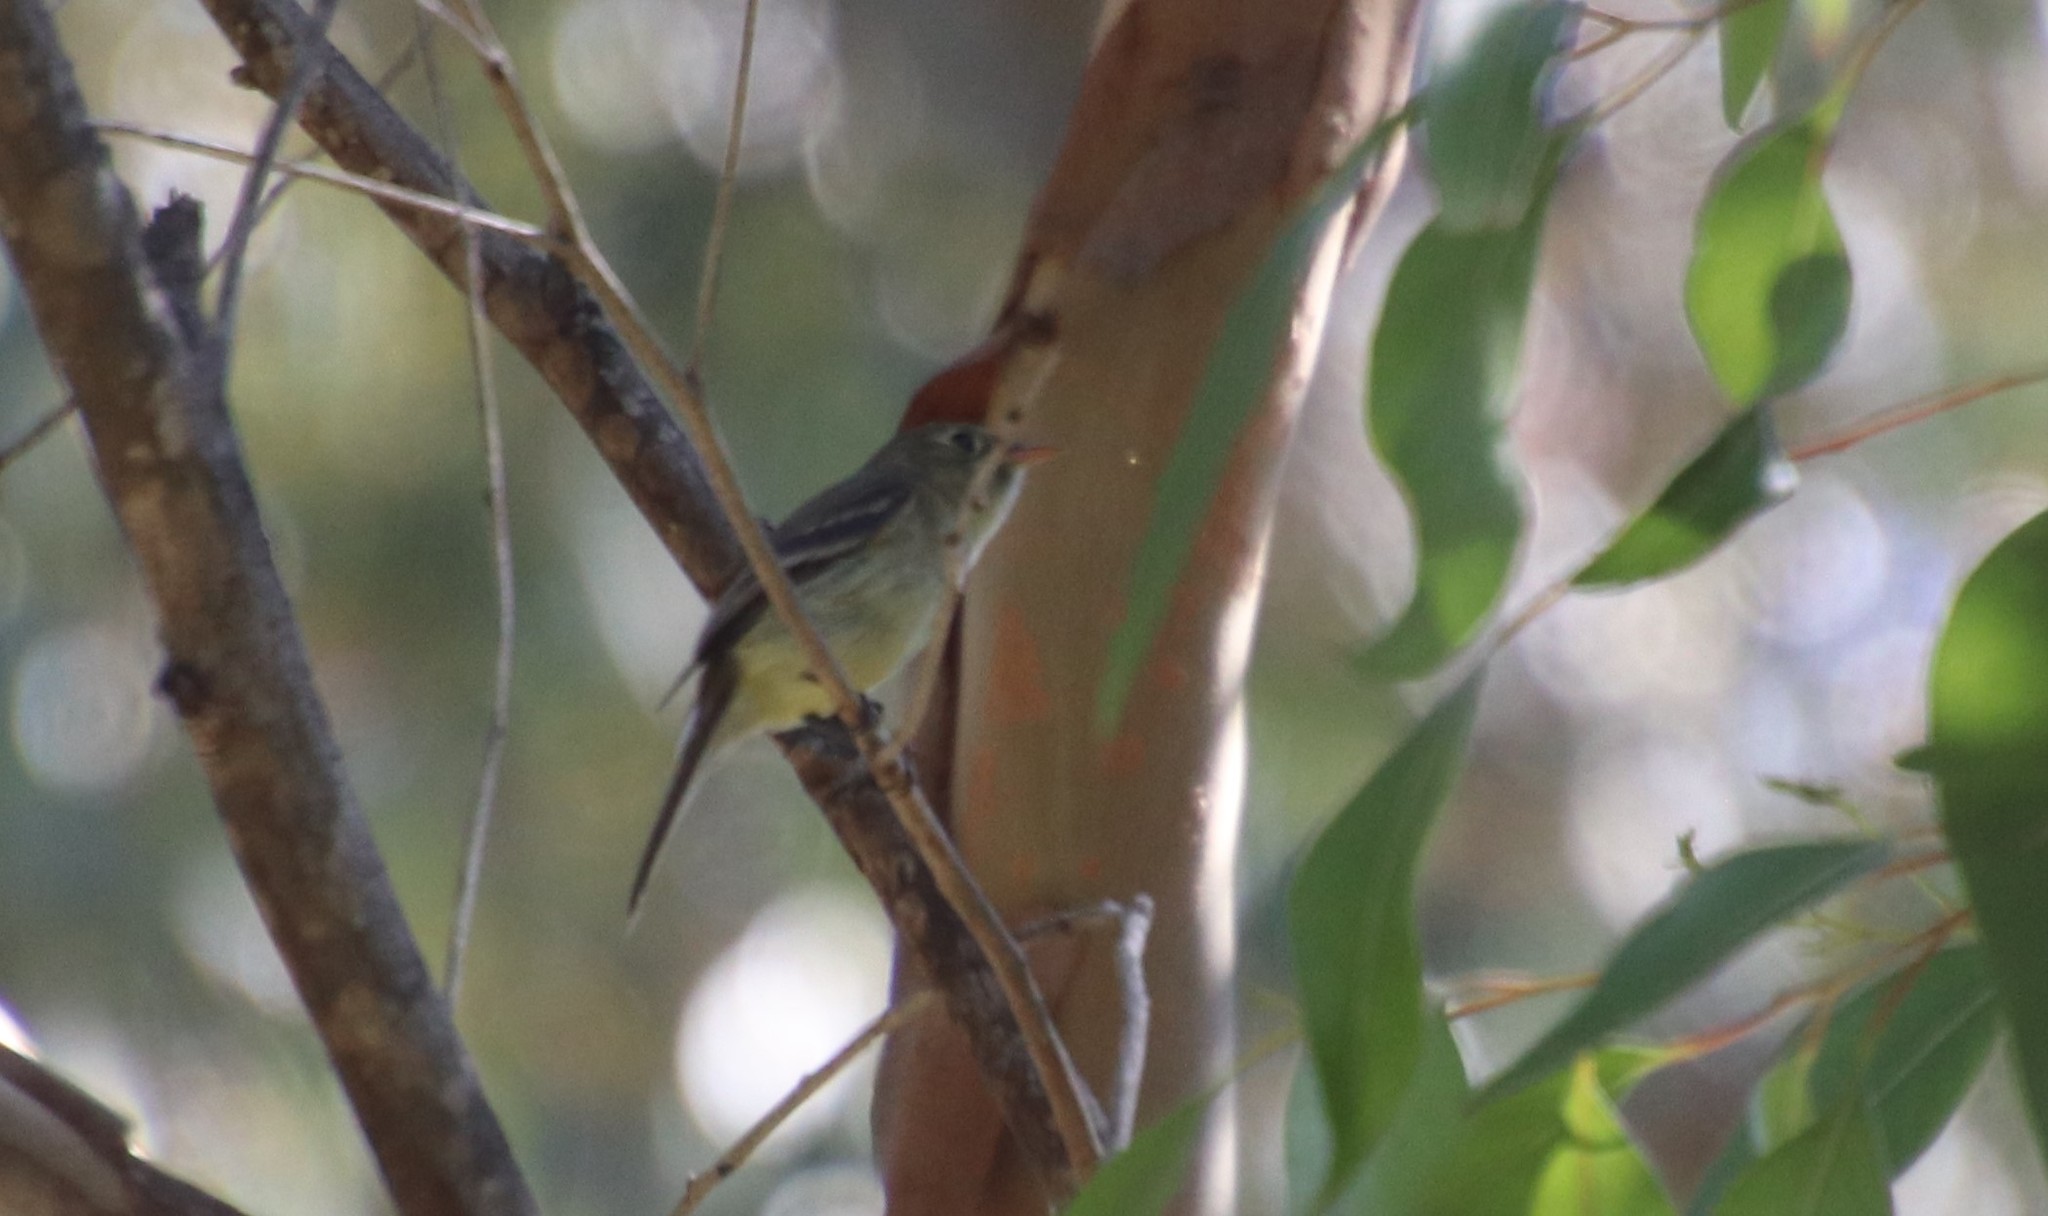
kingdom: Animalia
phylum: Chordata
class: Aves
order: Passeriformes
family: Tyrannidae
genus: Empidonax
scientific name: Empidonax difficilis
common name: Pacific-slope flycatcher
